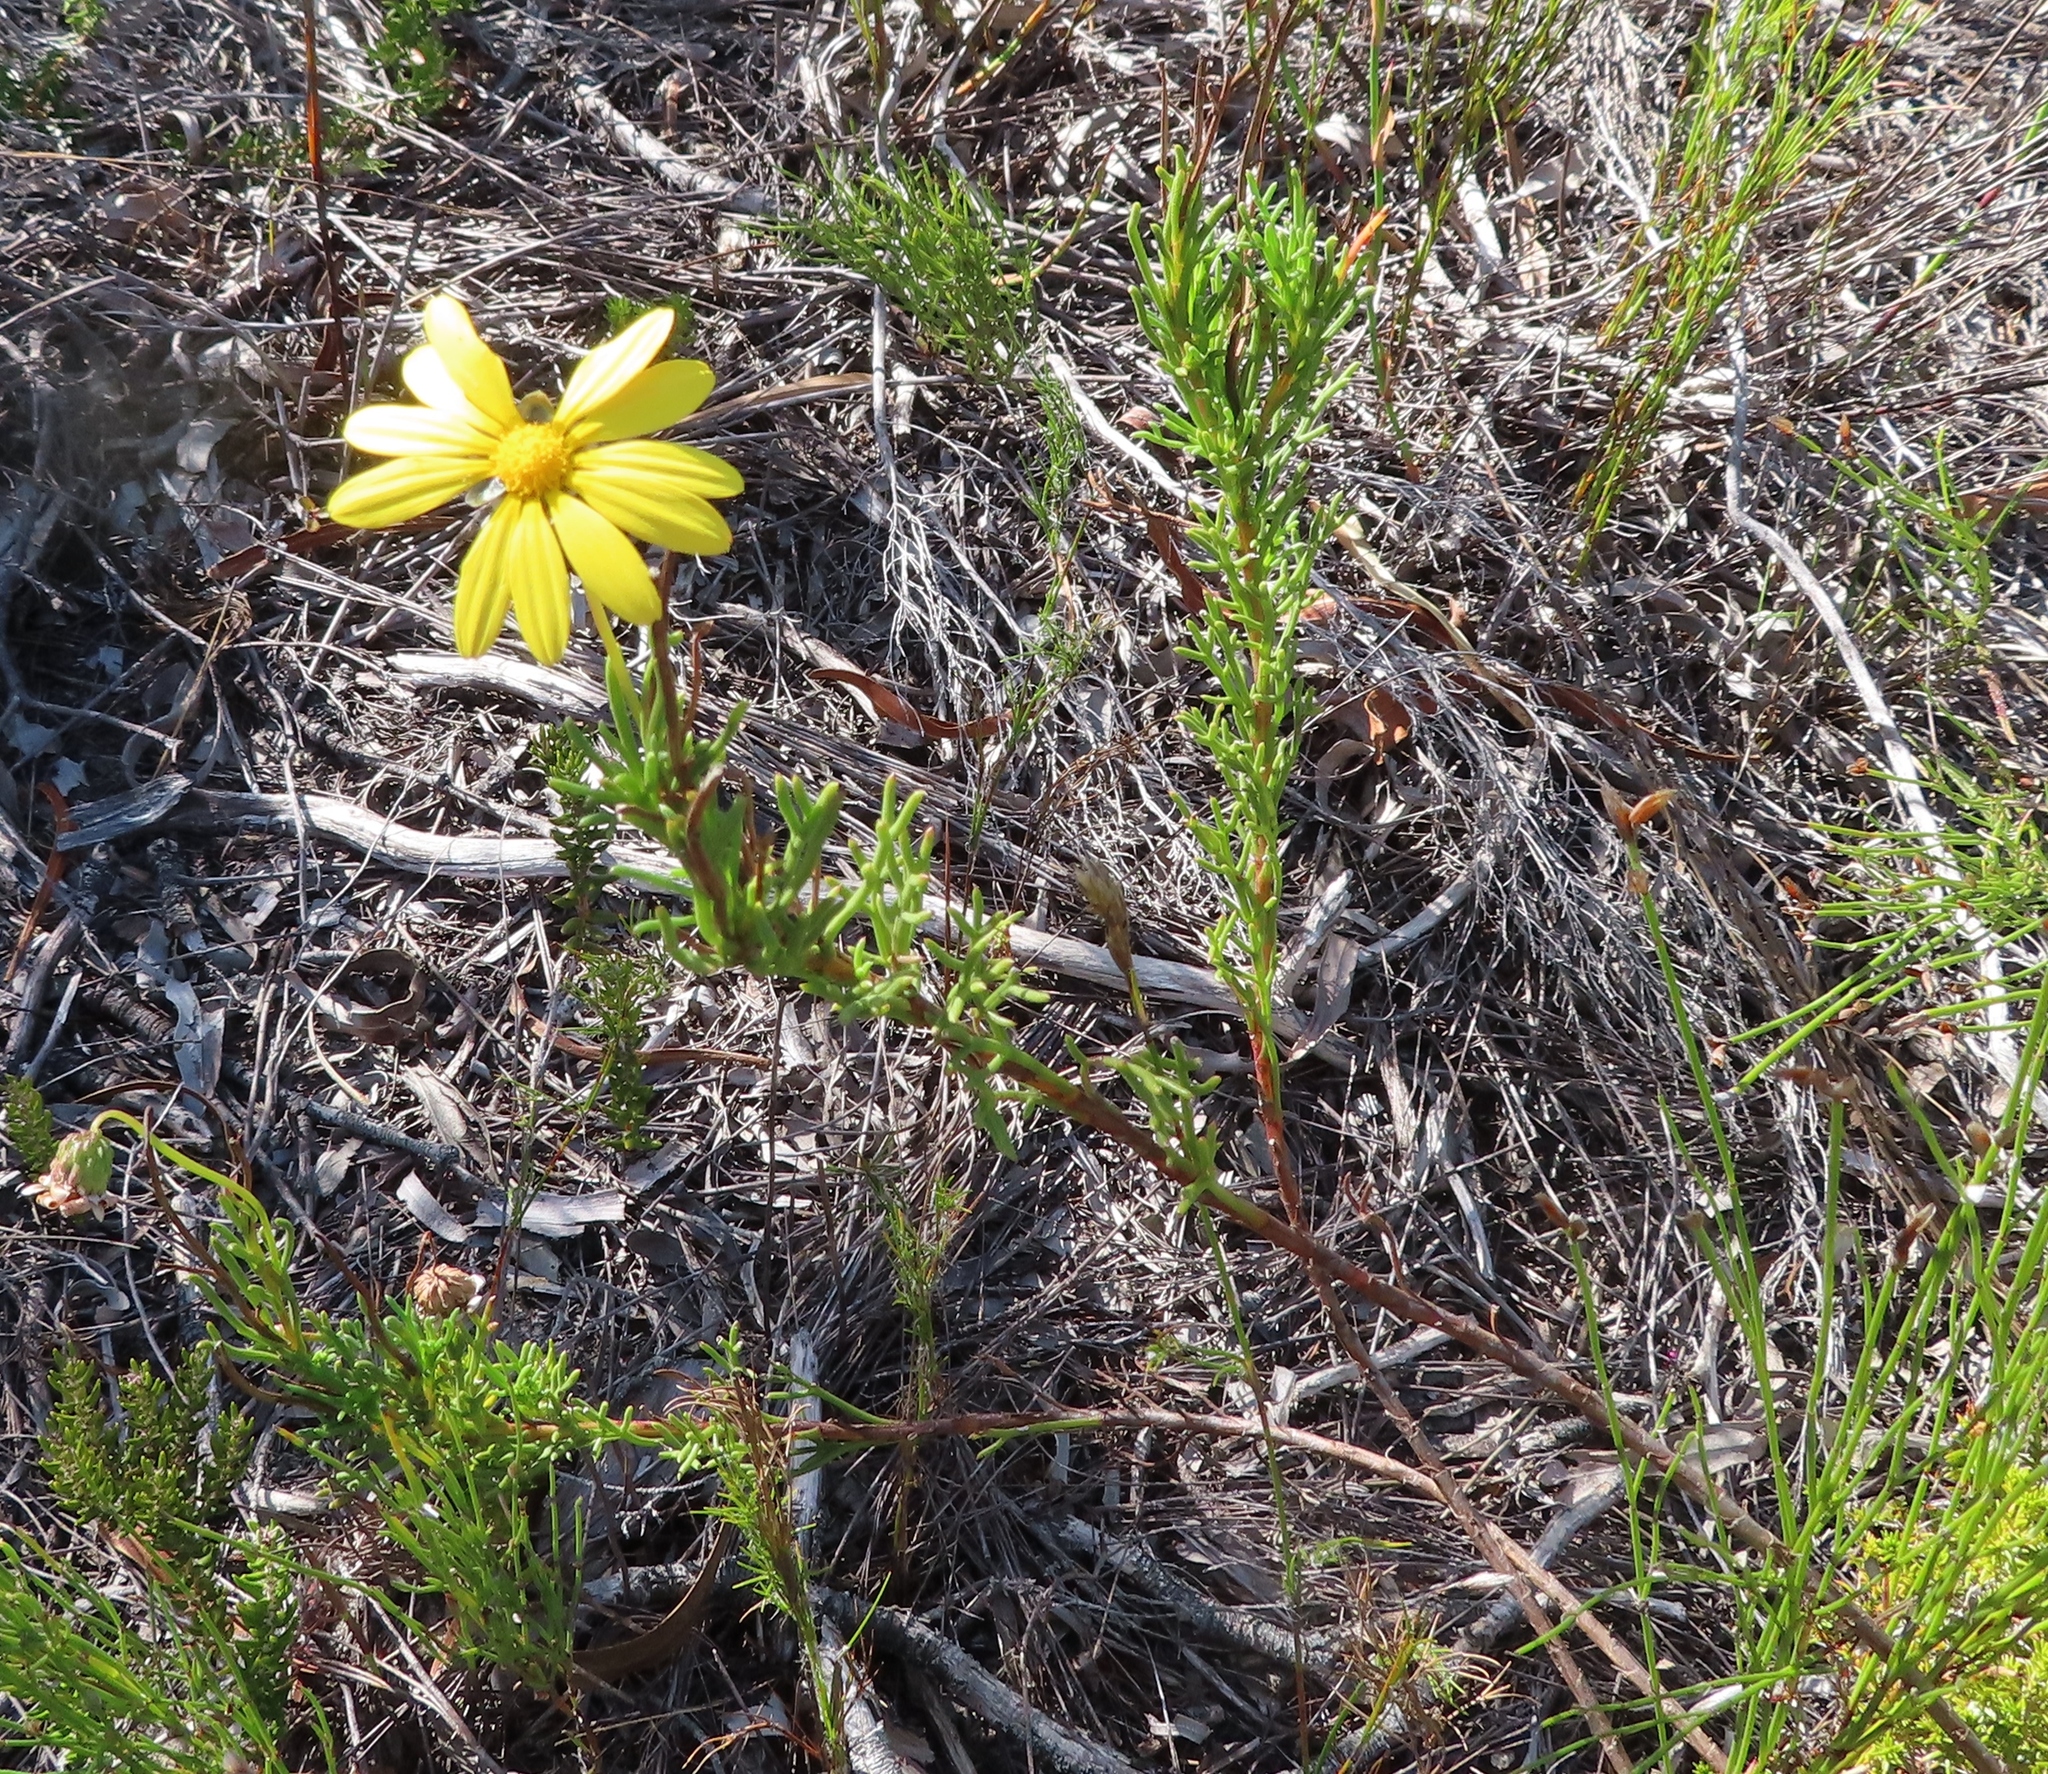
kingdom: Plantae
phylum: Tracheophyta
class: Magnoliopsida
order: Asterales
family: Asteraceae
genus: Ursinia
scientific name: Ursinia paleacea
